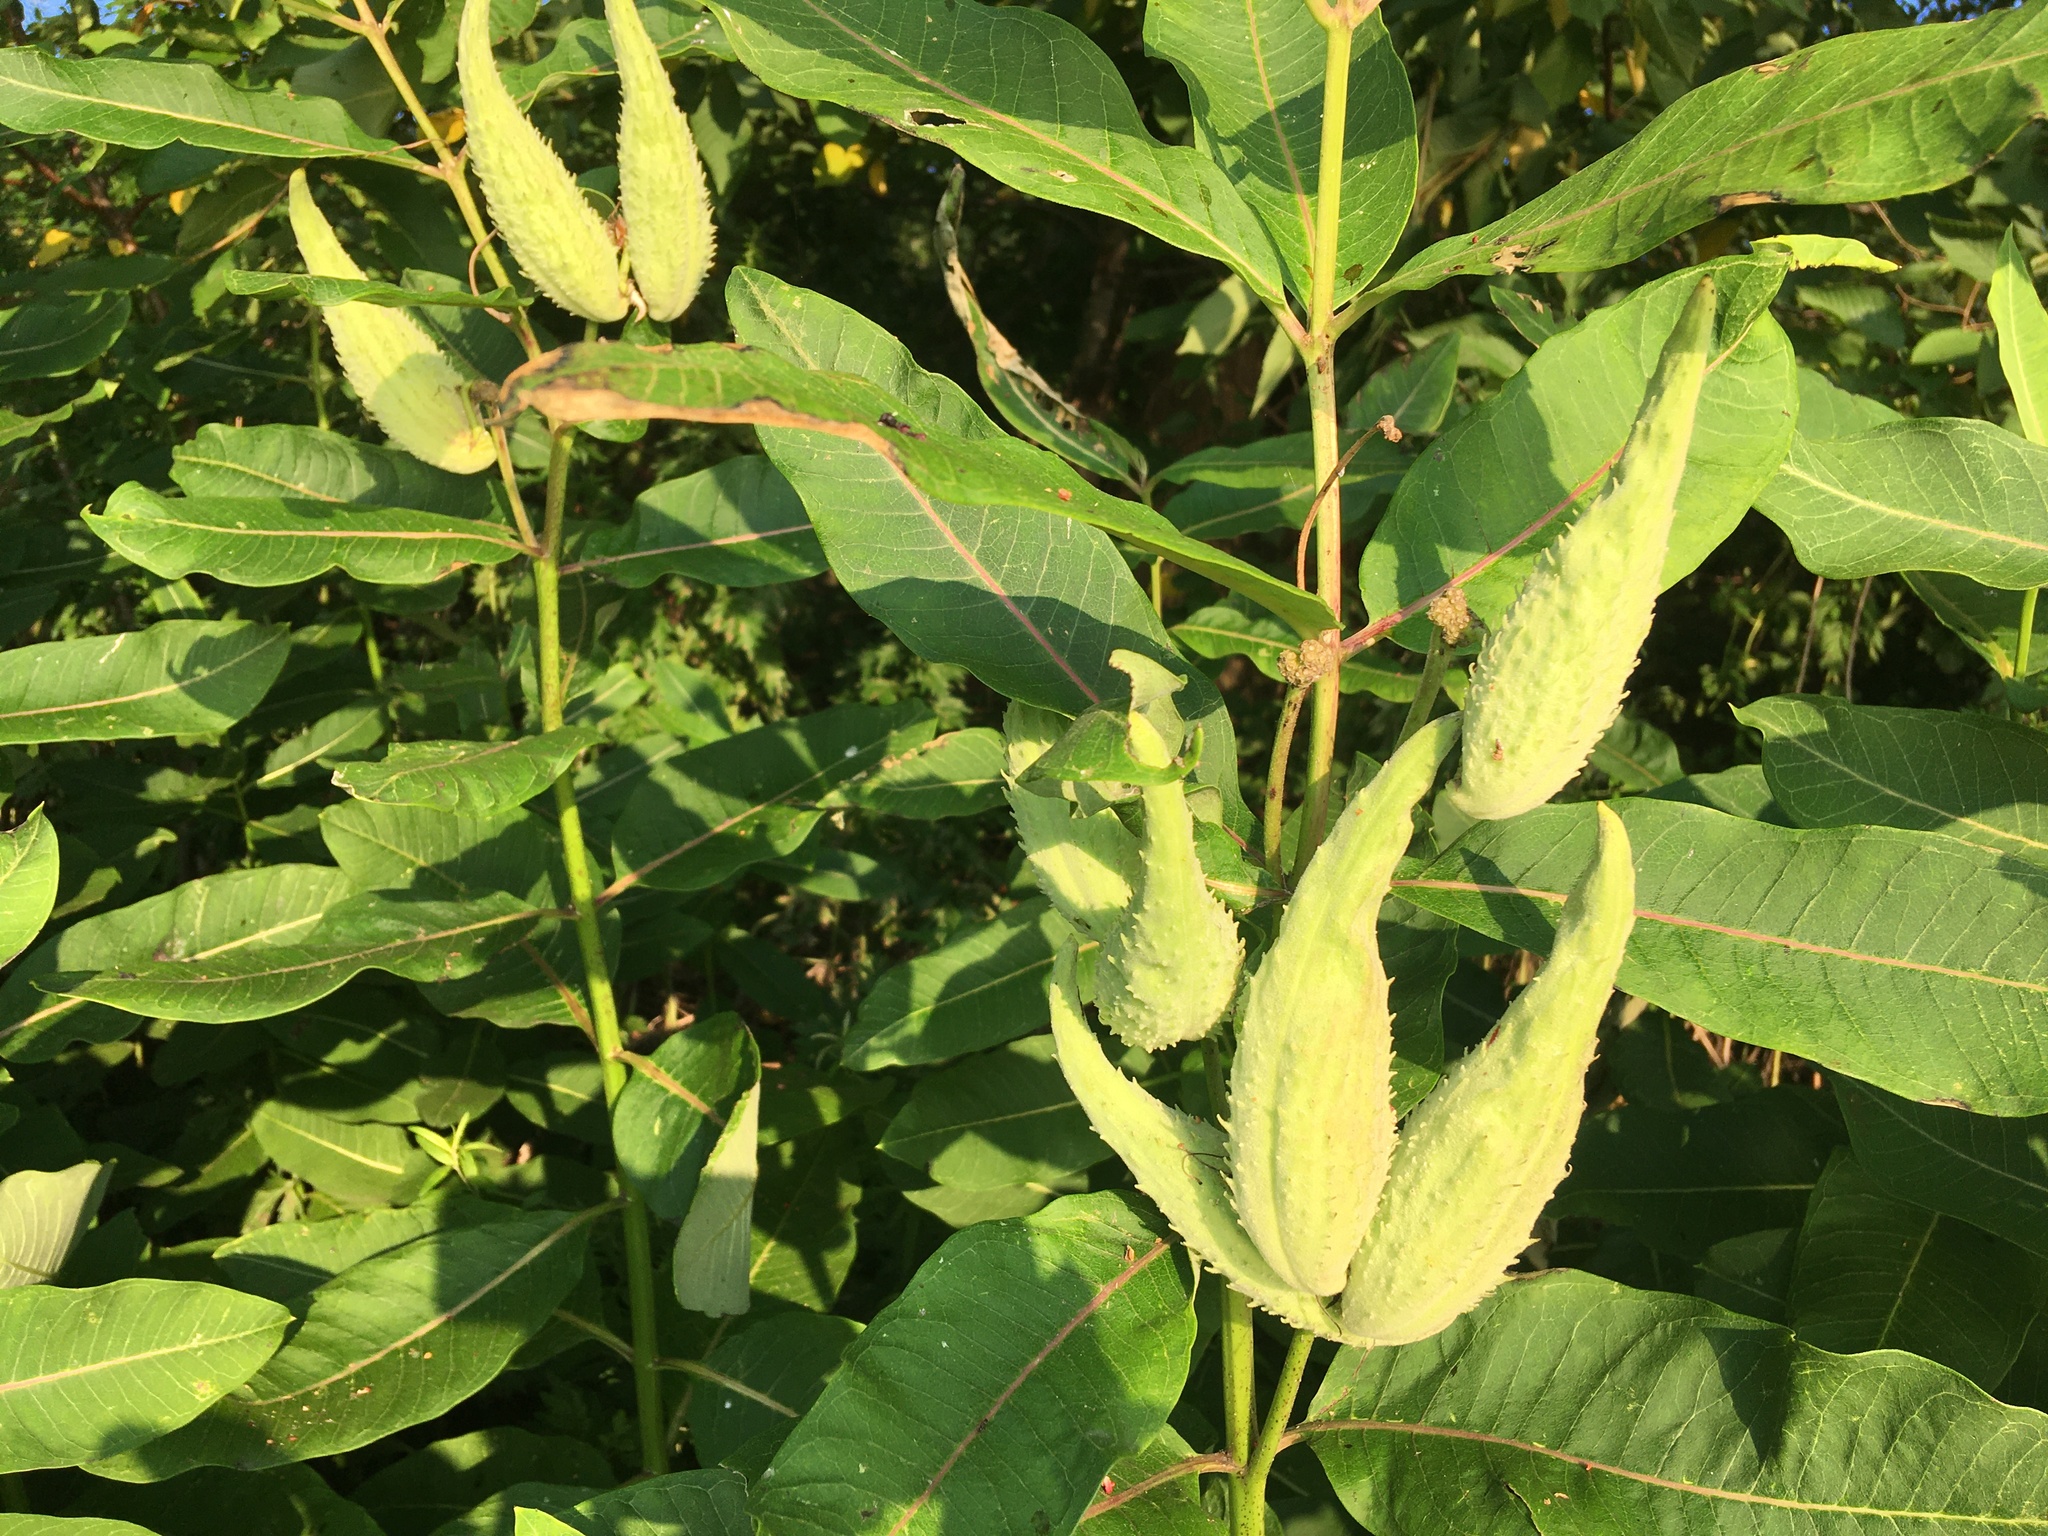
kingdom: Plantae
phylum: Tracheophyta
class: Magnoliopsida
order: Gentianales
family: Apocynaceae
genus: Asclepias
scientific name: Asclepias syriaca
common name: Common milkweed
